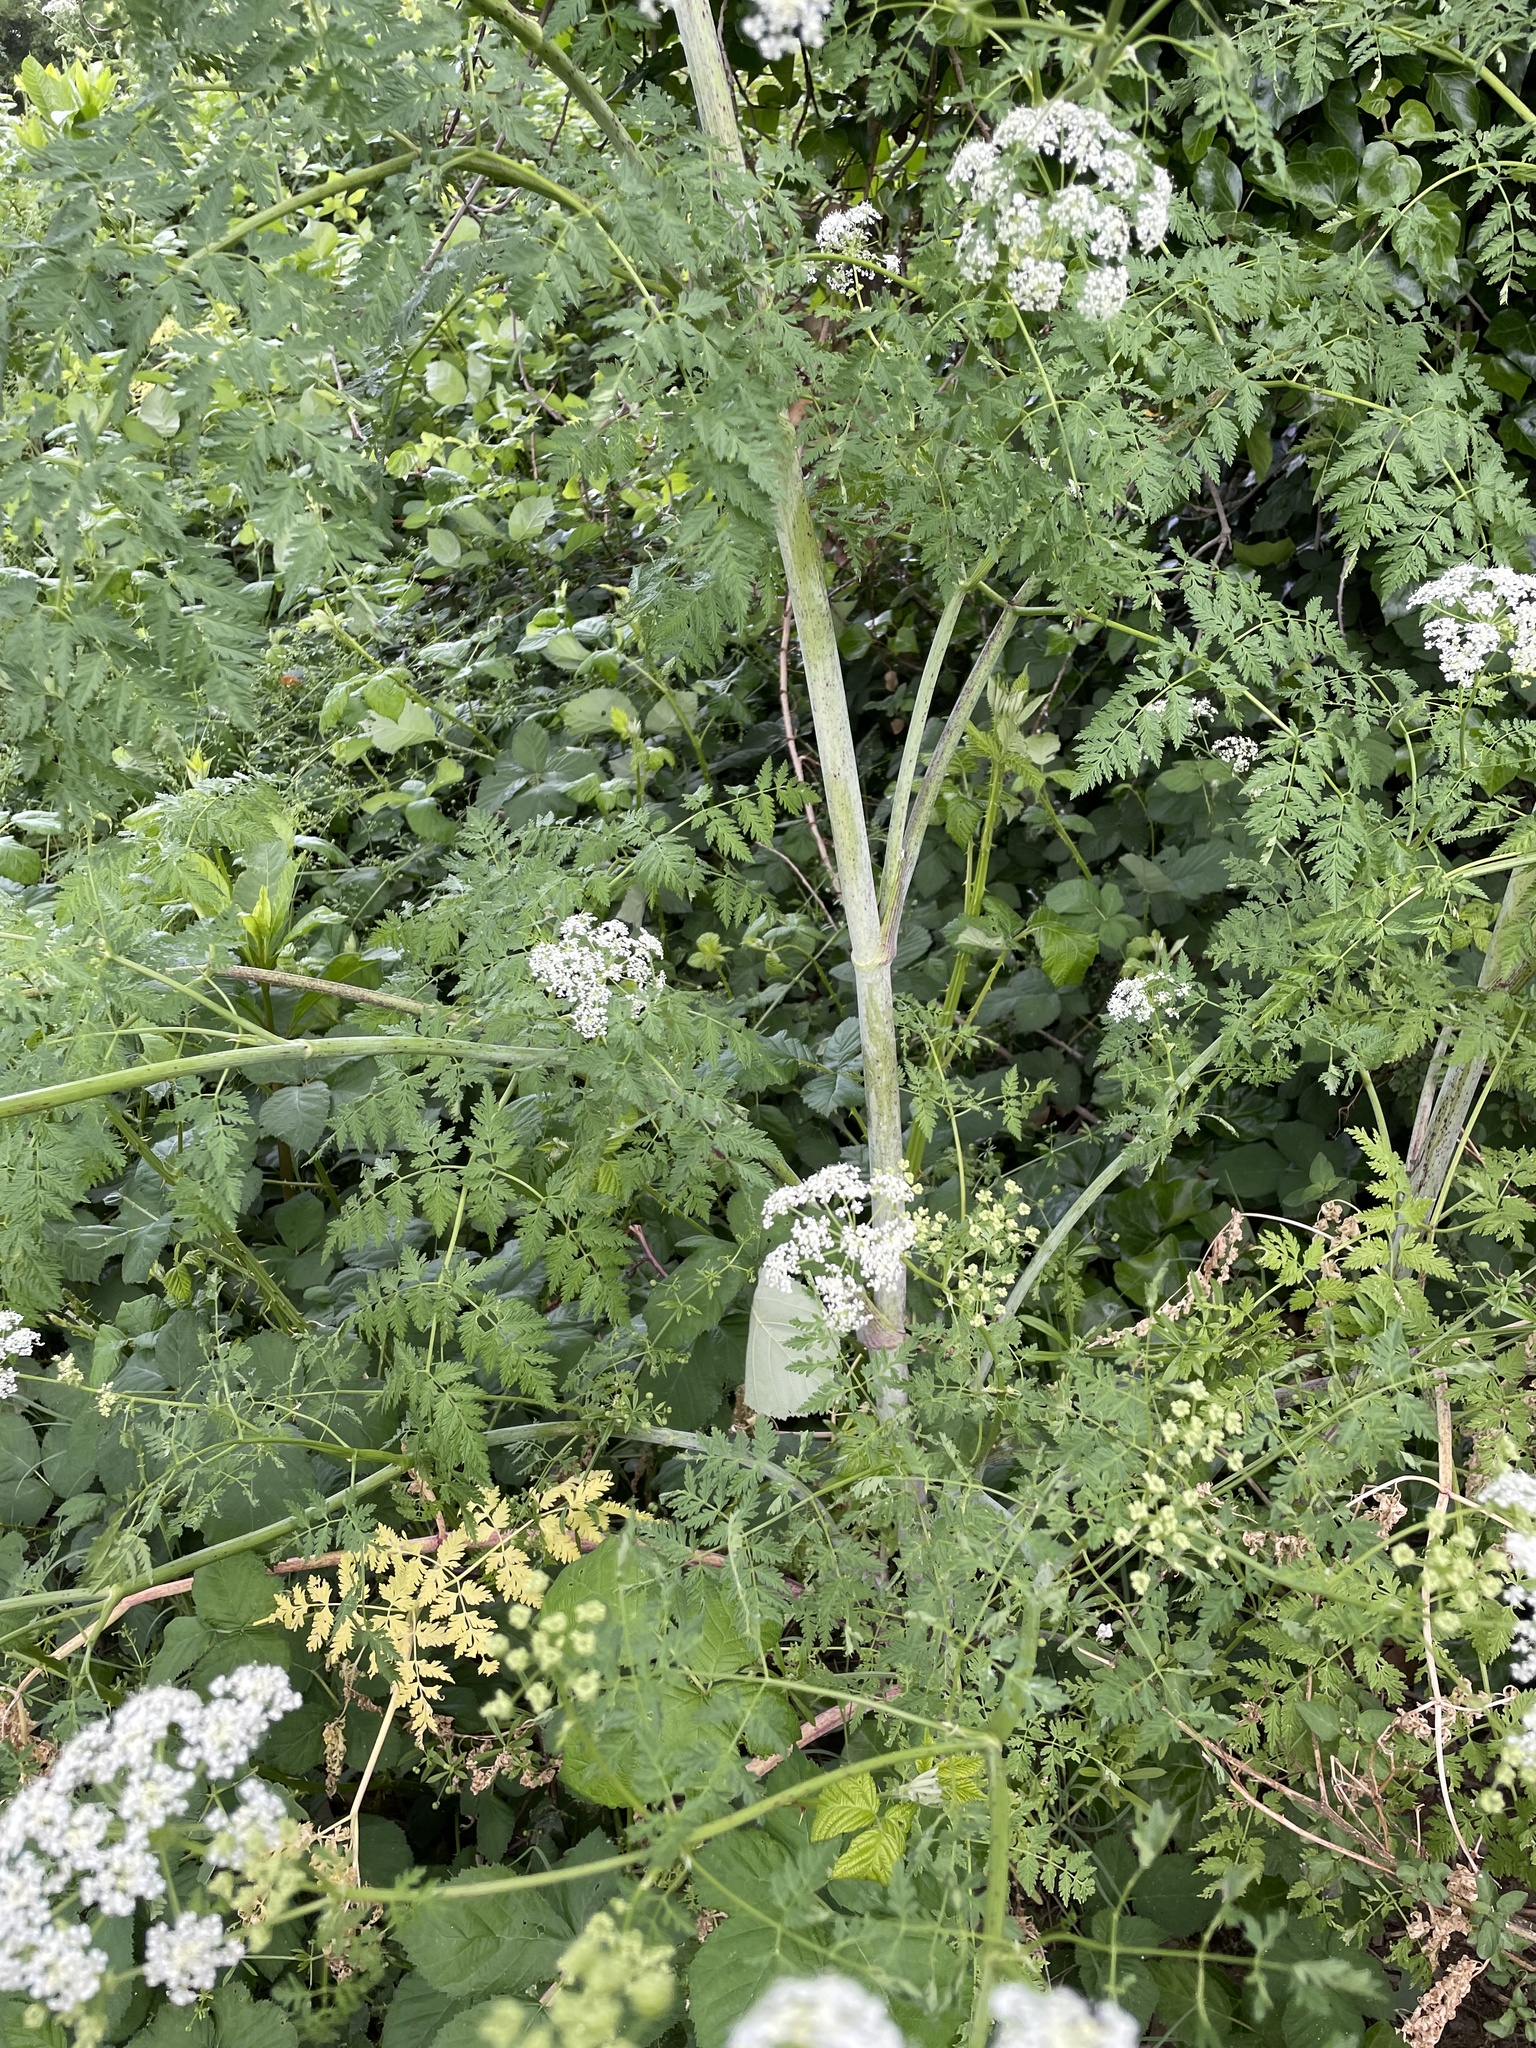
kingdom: Plantae
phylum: Tracheophyta
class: Magnoliopsida
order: Apiales
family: Apiaceae
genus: Conium
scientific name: Conium maculatum
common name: Hemlock
